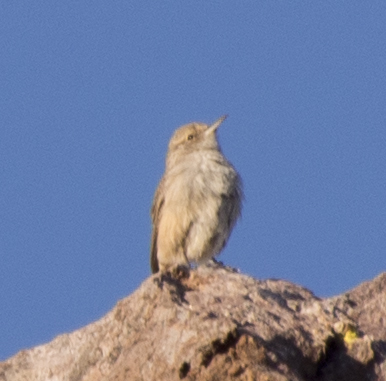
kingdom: Animalia
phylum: Chordata
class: Aves
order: Passeriformes
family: Troglodytidae
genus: Salpinctes
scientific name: Salpinctes obsoletus
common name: Rock wren
